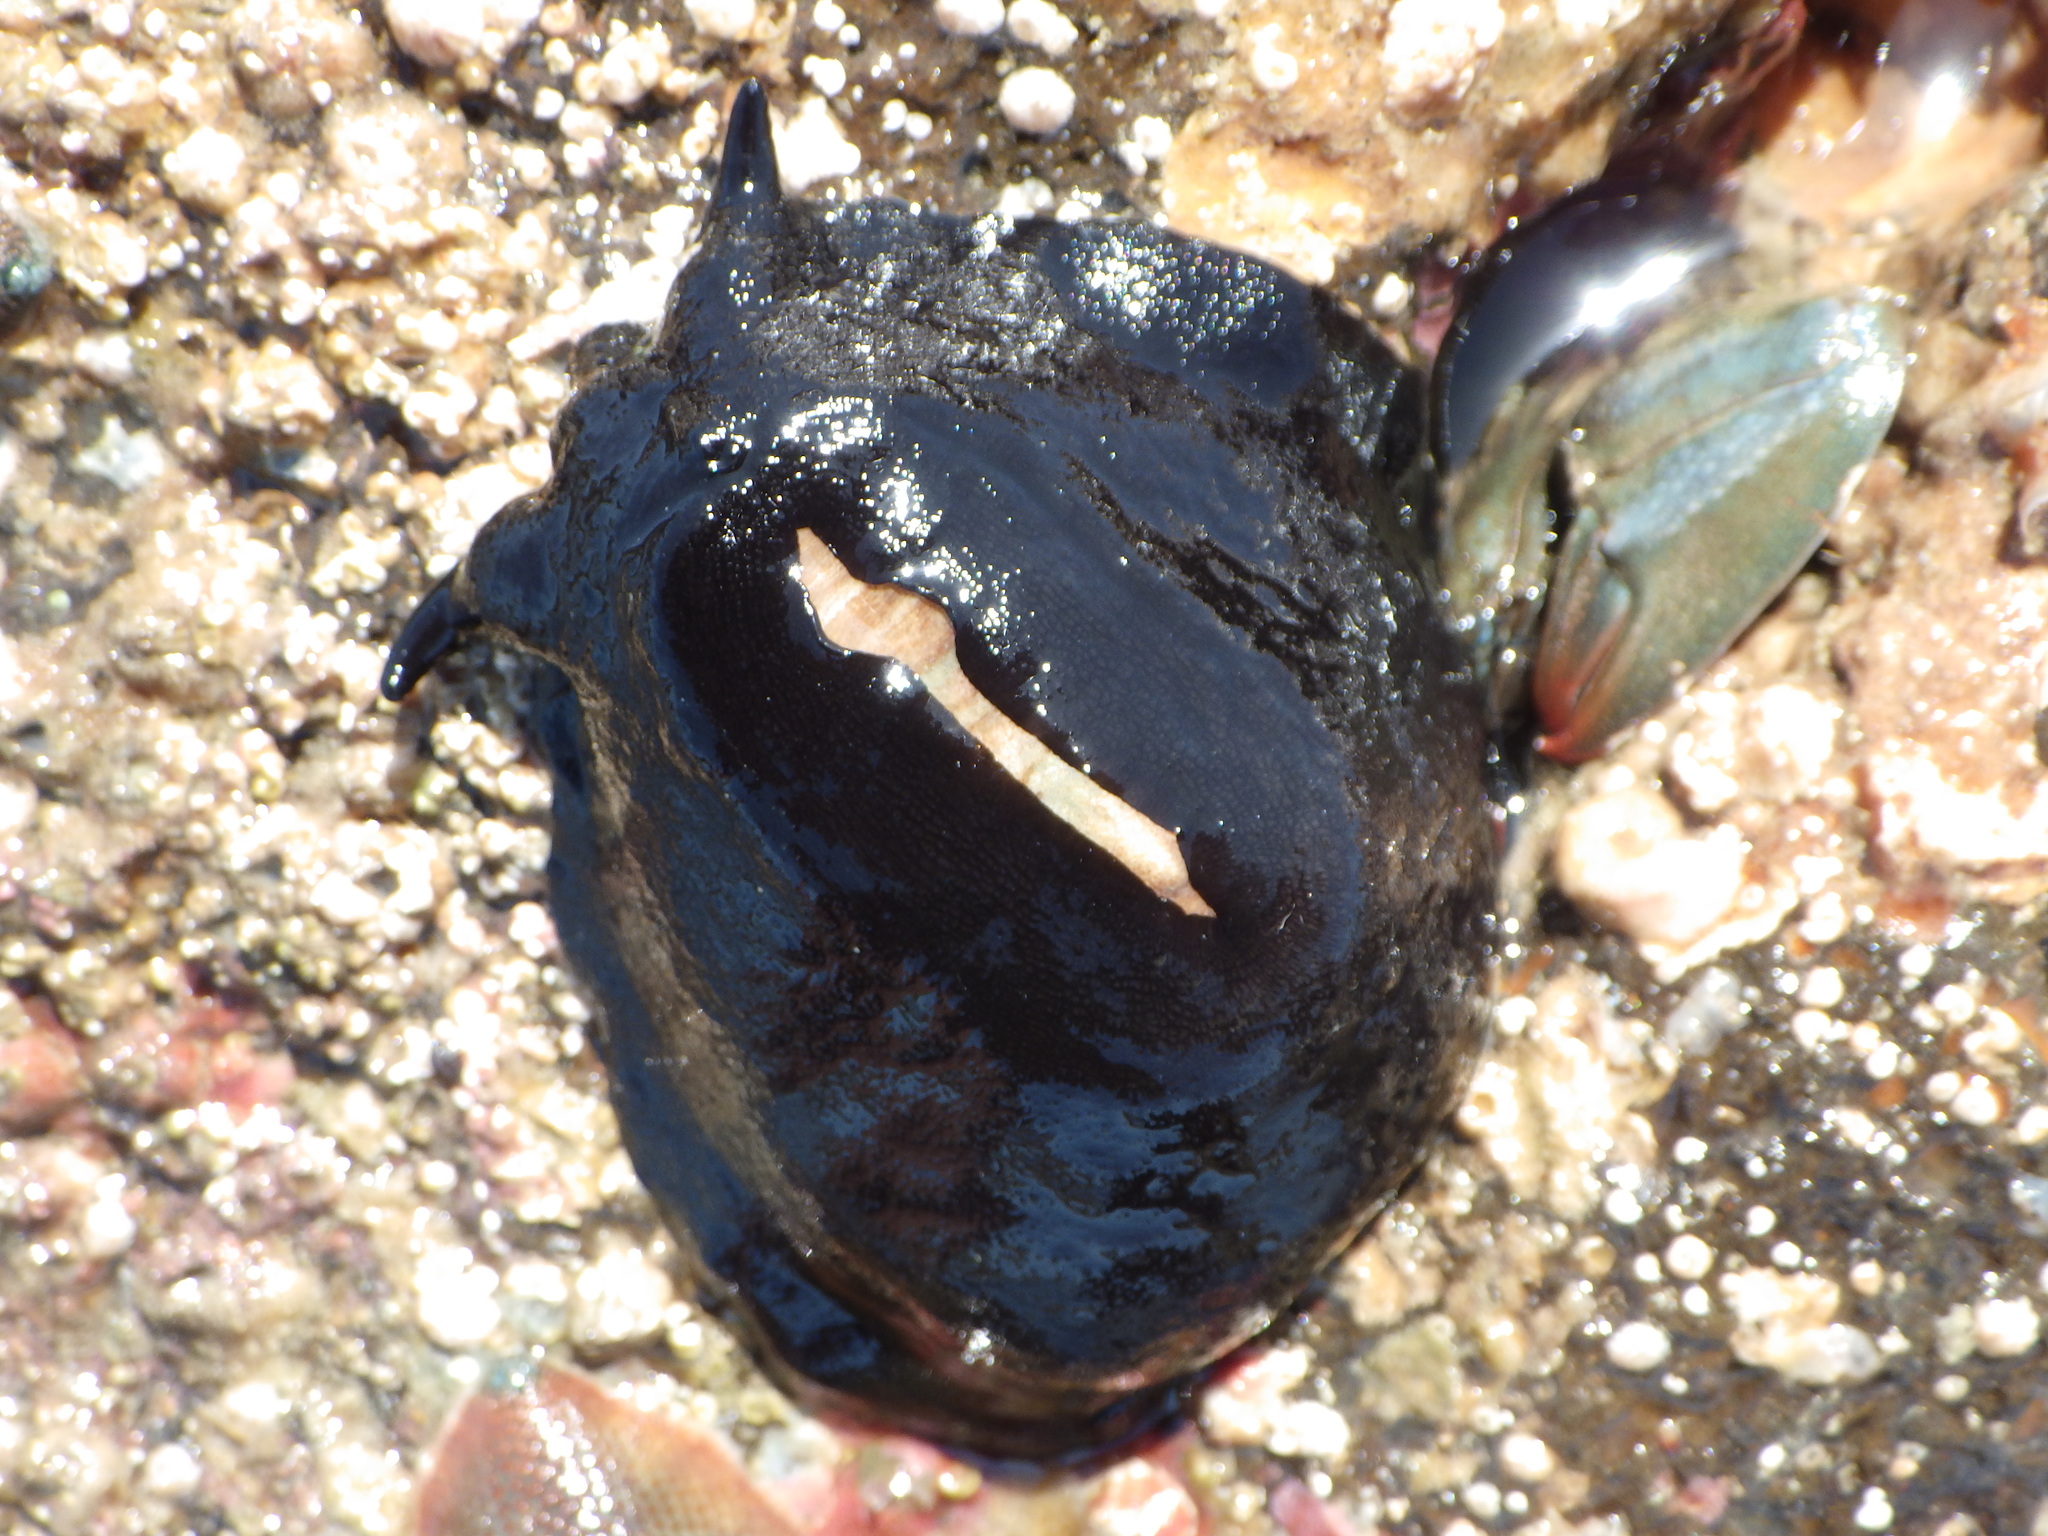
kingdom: Animalia
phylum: Mollusca
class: Gastropoda
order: Lepetellida
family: Fissurellidae
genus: Scutus
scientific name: Scutus breviculus
